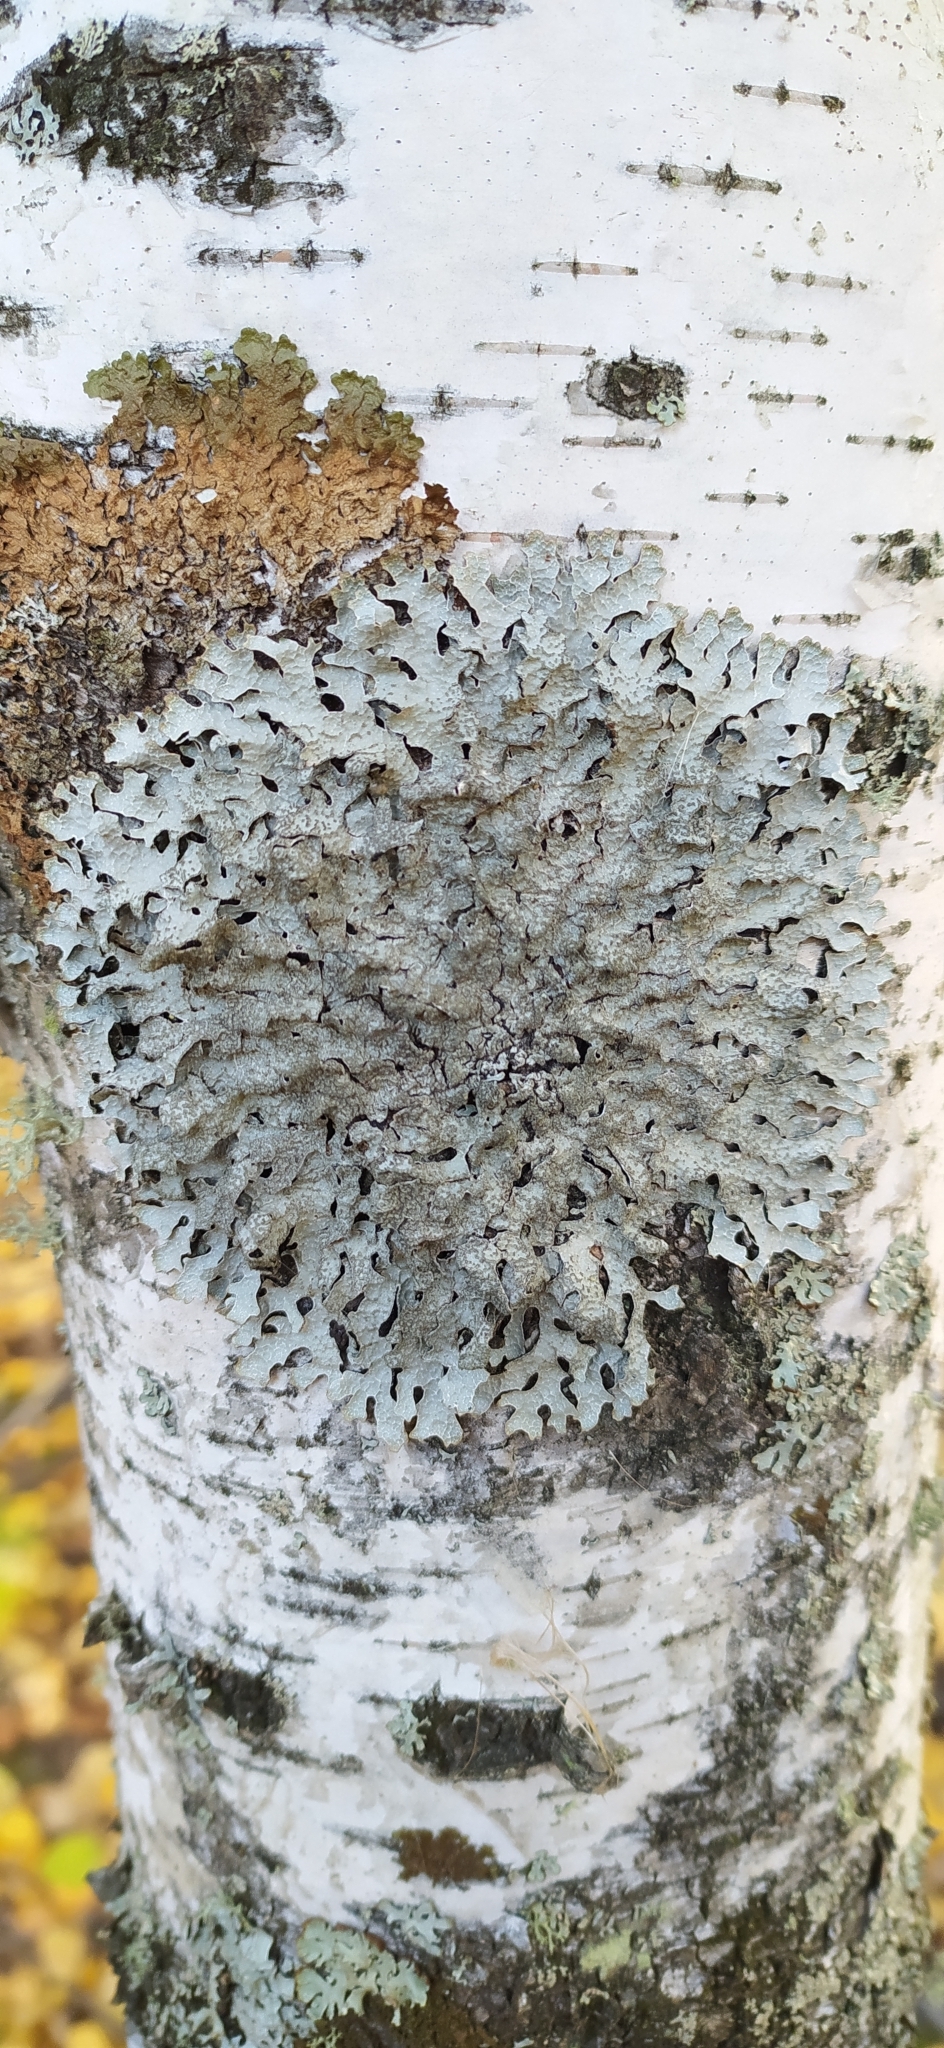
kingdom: Fungi
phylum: Ascomycota
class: Lecanoromycetes
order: Lecanorales
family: Parmeliaceae
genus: Parmelia
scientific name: Parmelia sulcata
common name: Netted shield lichen
